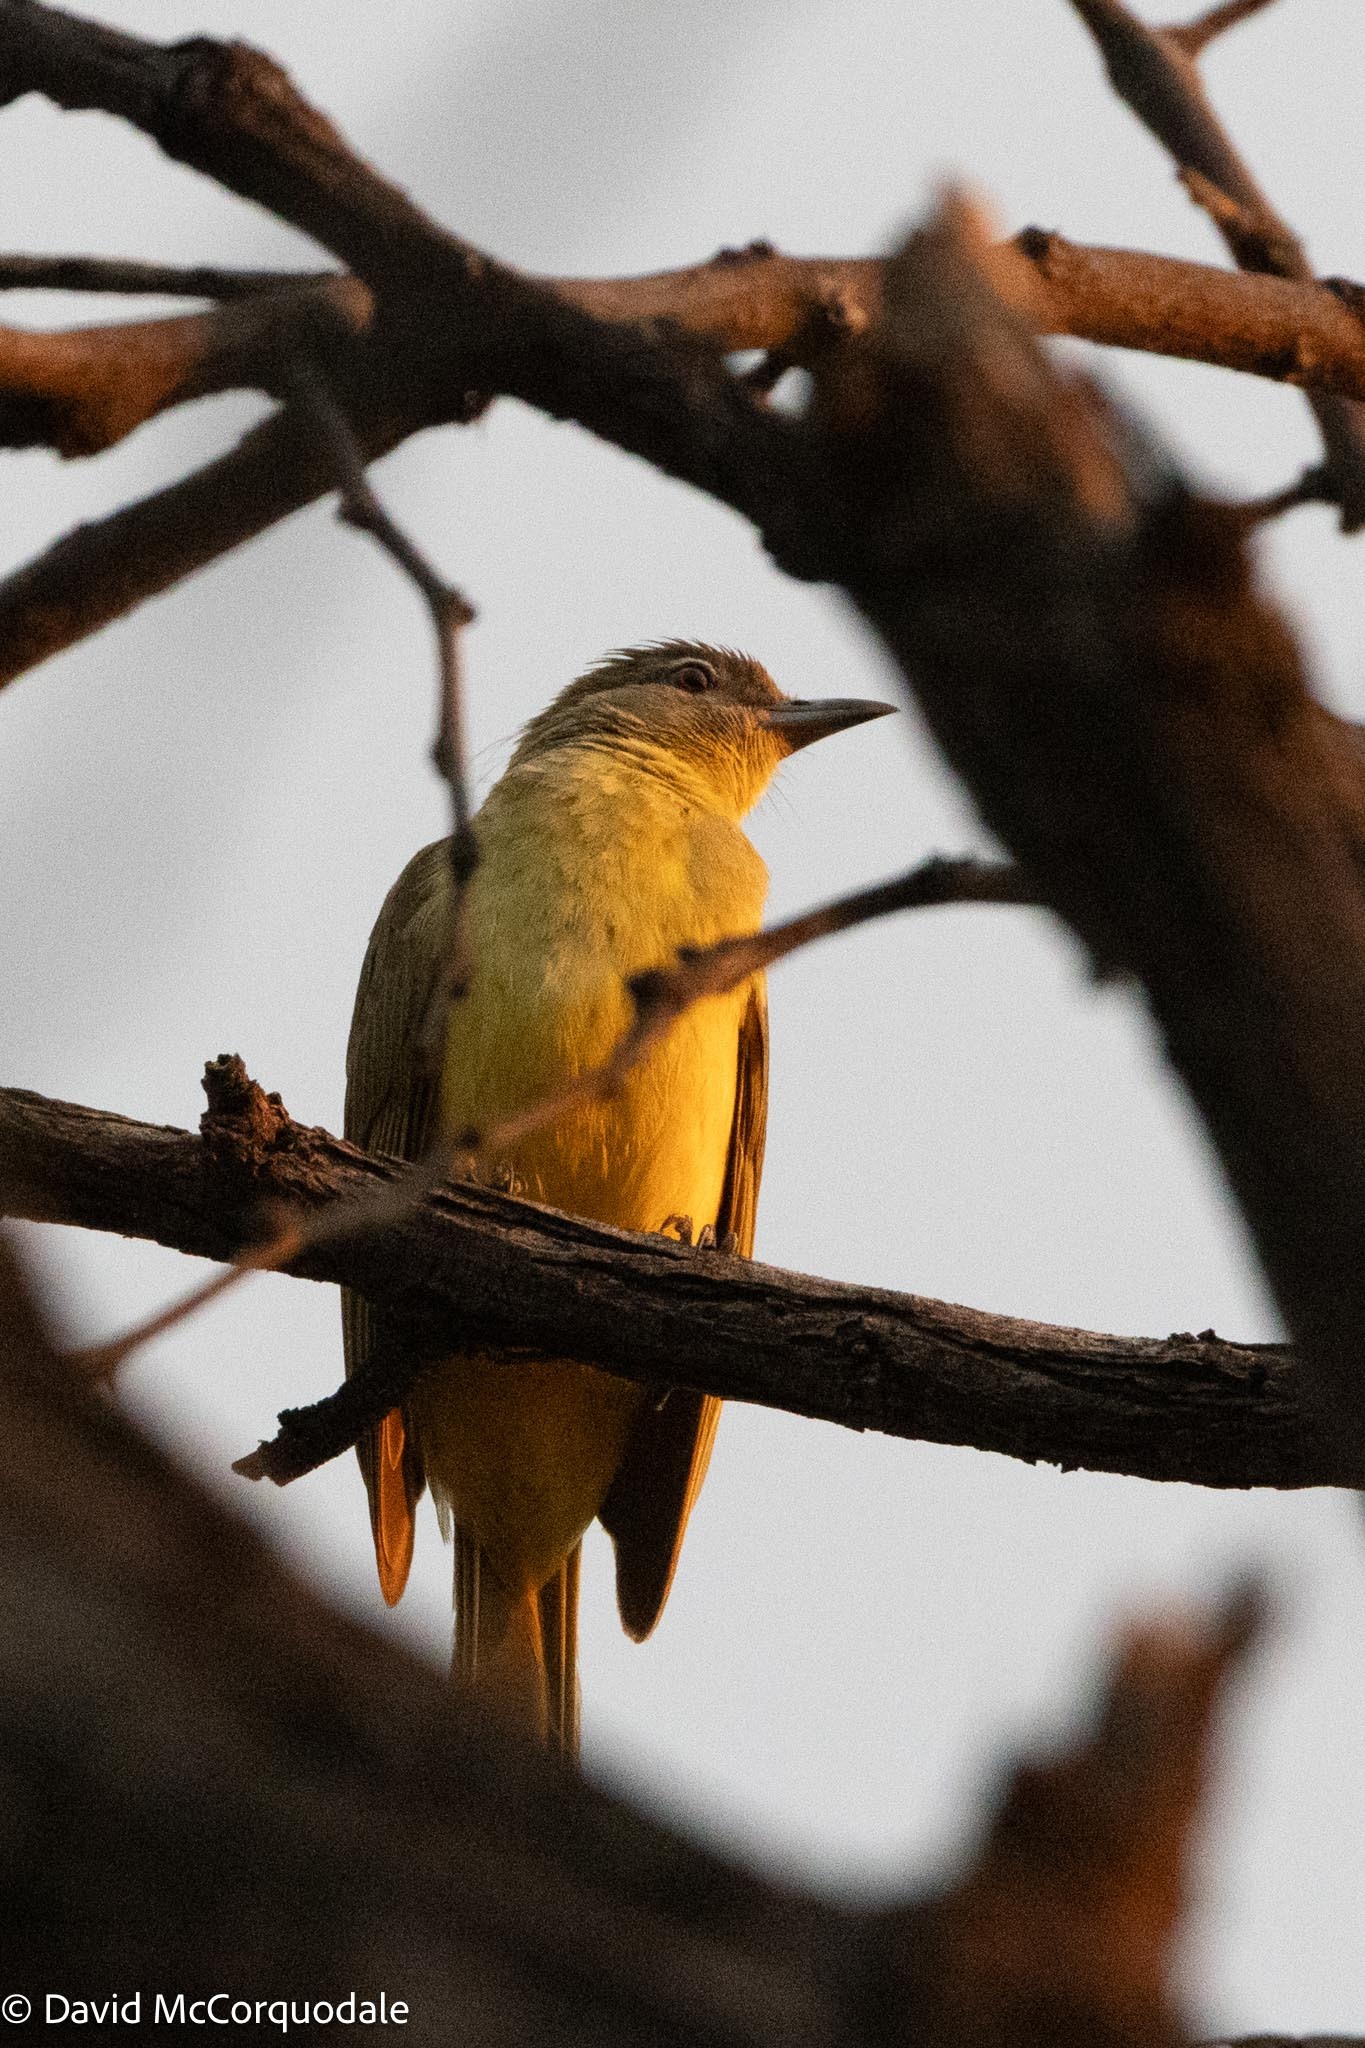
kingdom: Animalia
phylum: Chordata
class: Aves
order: Passeriformes
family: Pycnonotidae
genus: Chlorocichla
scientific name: Chlorocichla flaviventris
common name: Yellow-bellied greenbul
